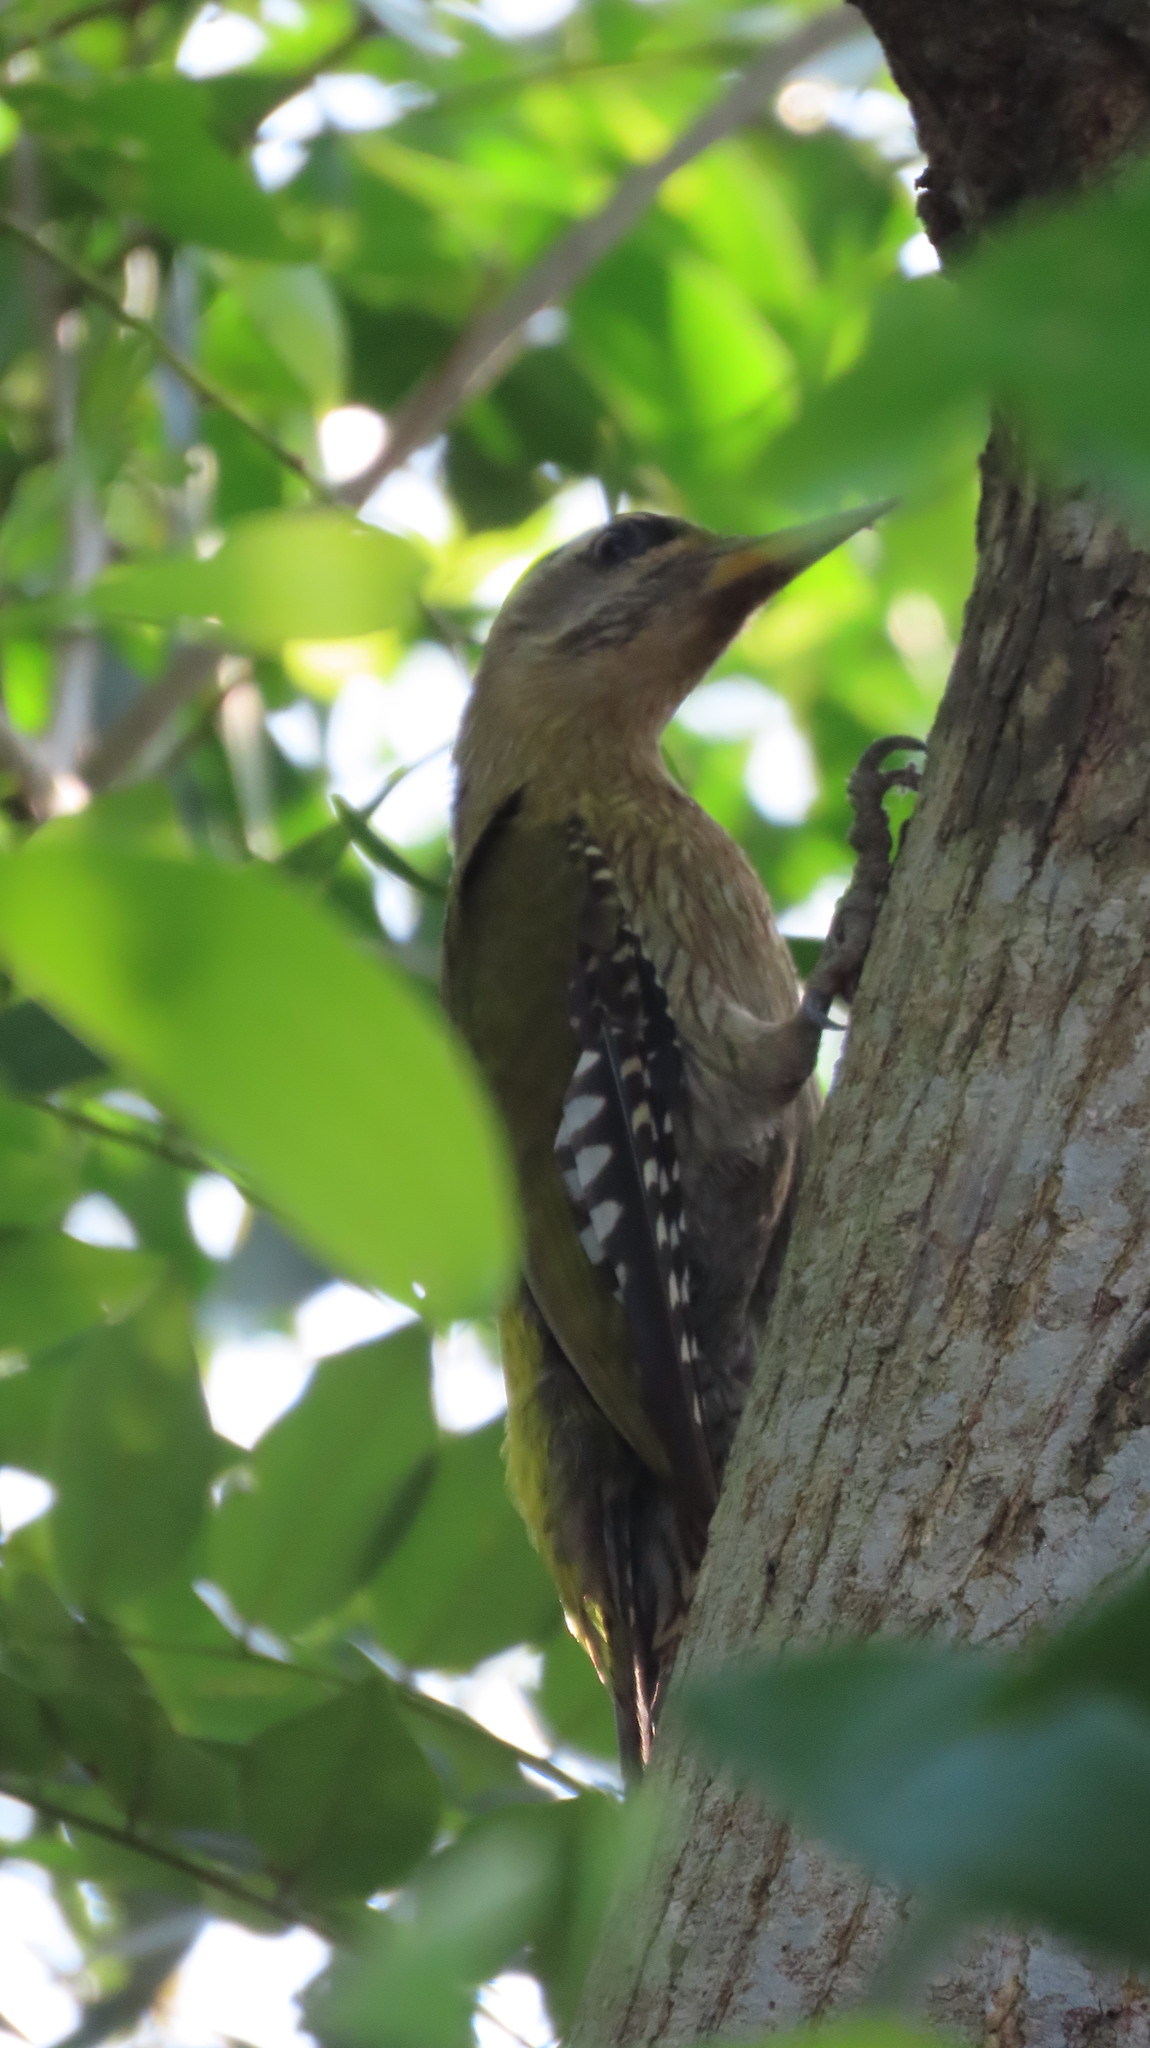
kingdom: Animalia
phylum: Chordata
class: Aves
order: Piciformes
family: Picidae
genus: Picus
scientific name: Picus xanthopygaeus
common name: Streak-throated woodpecker
